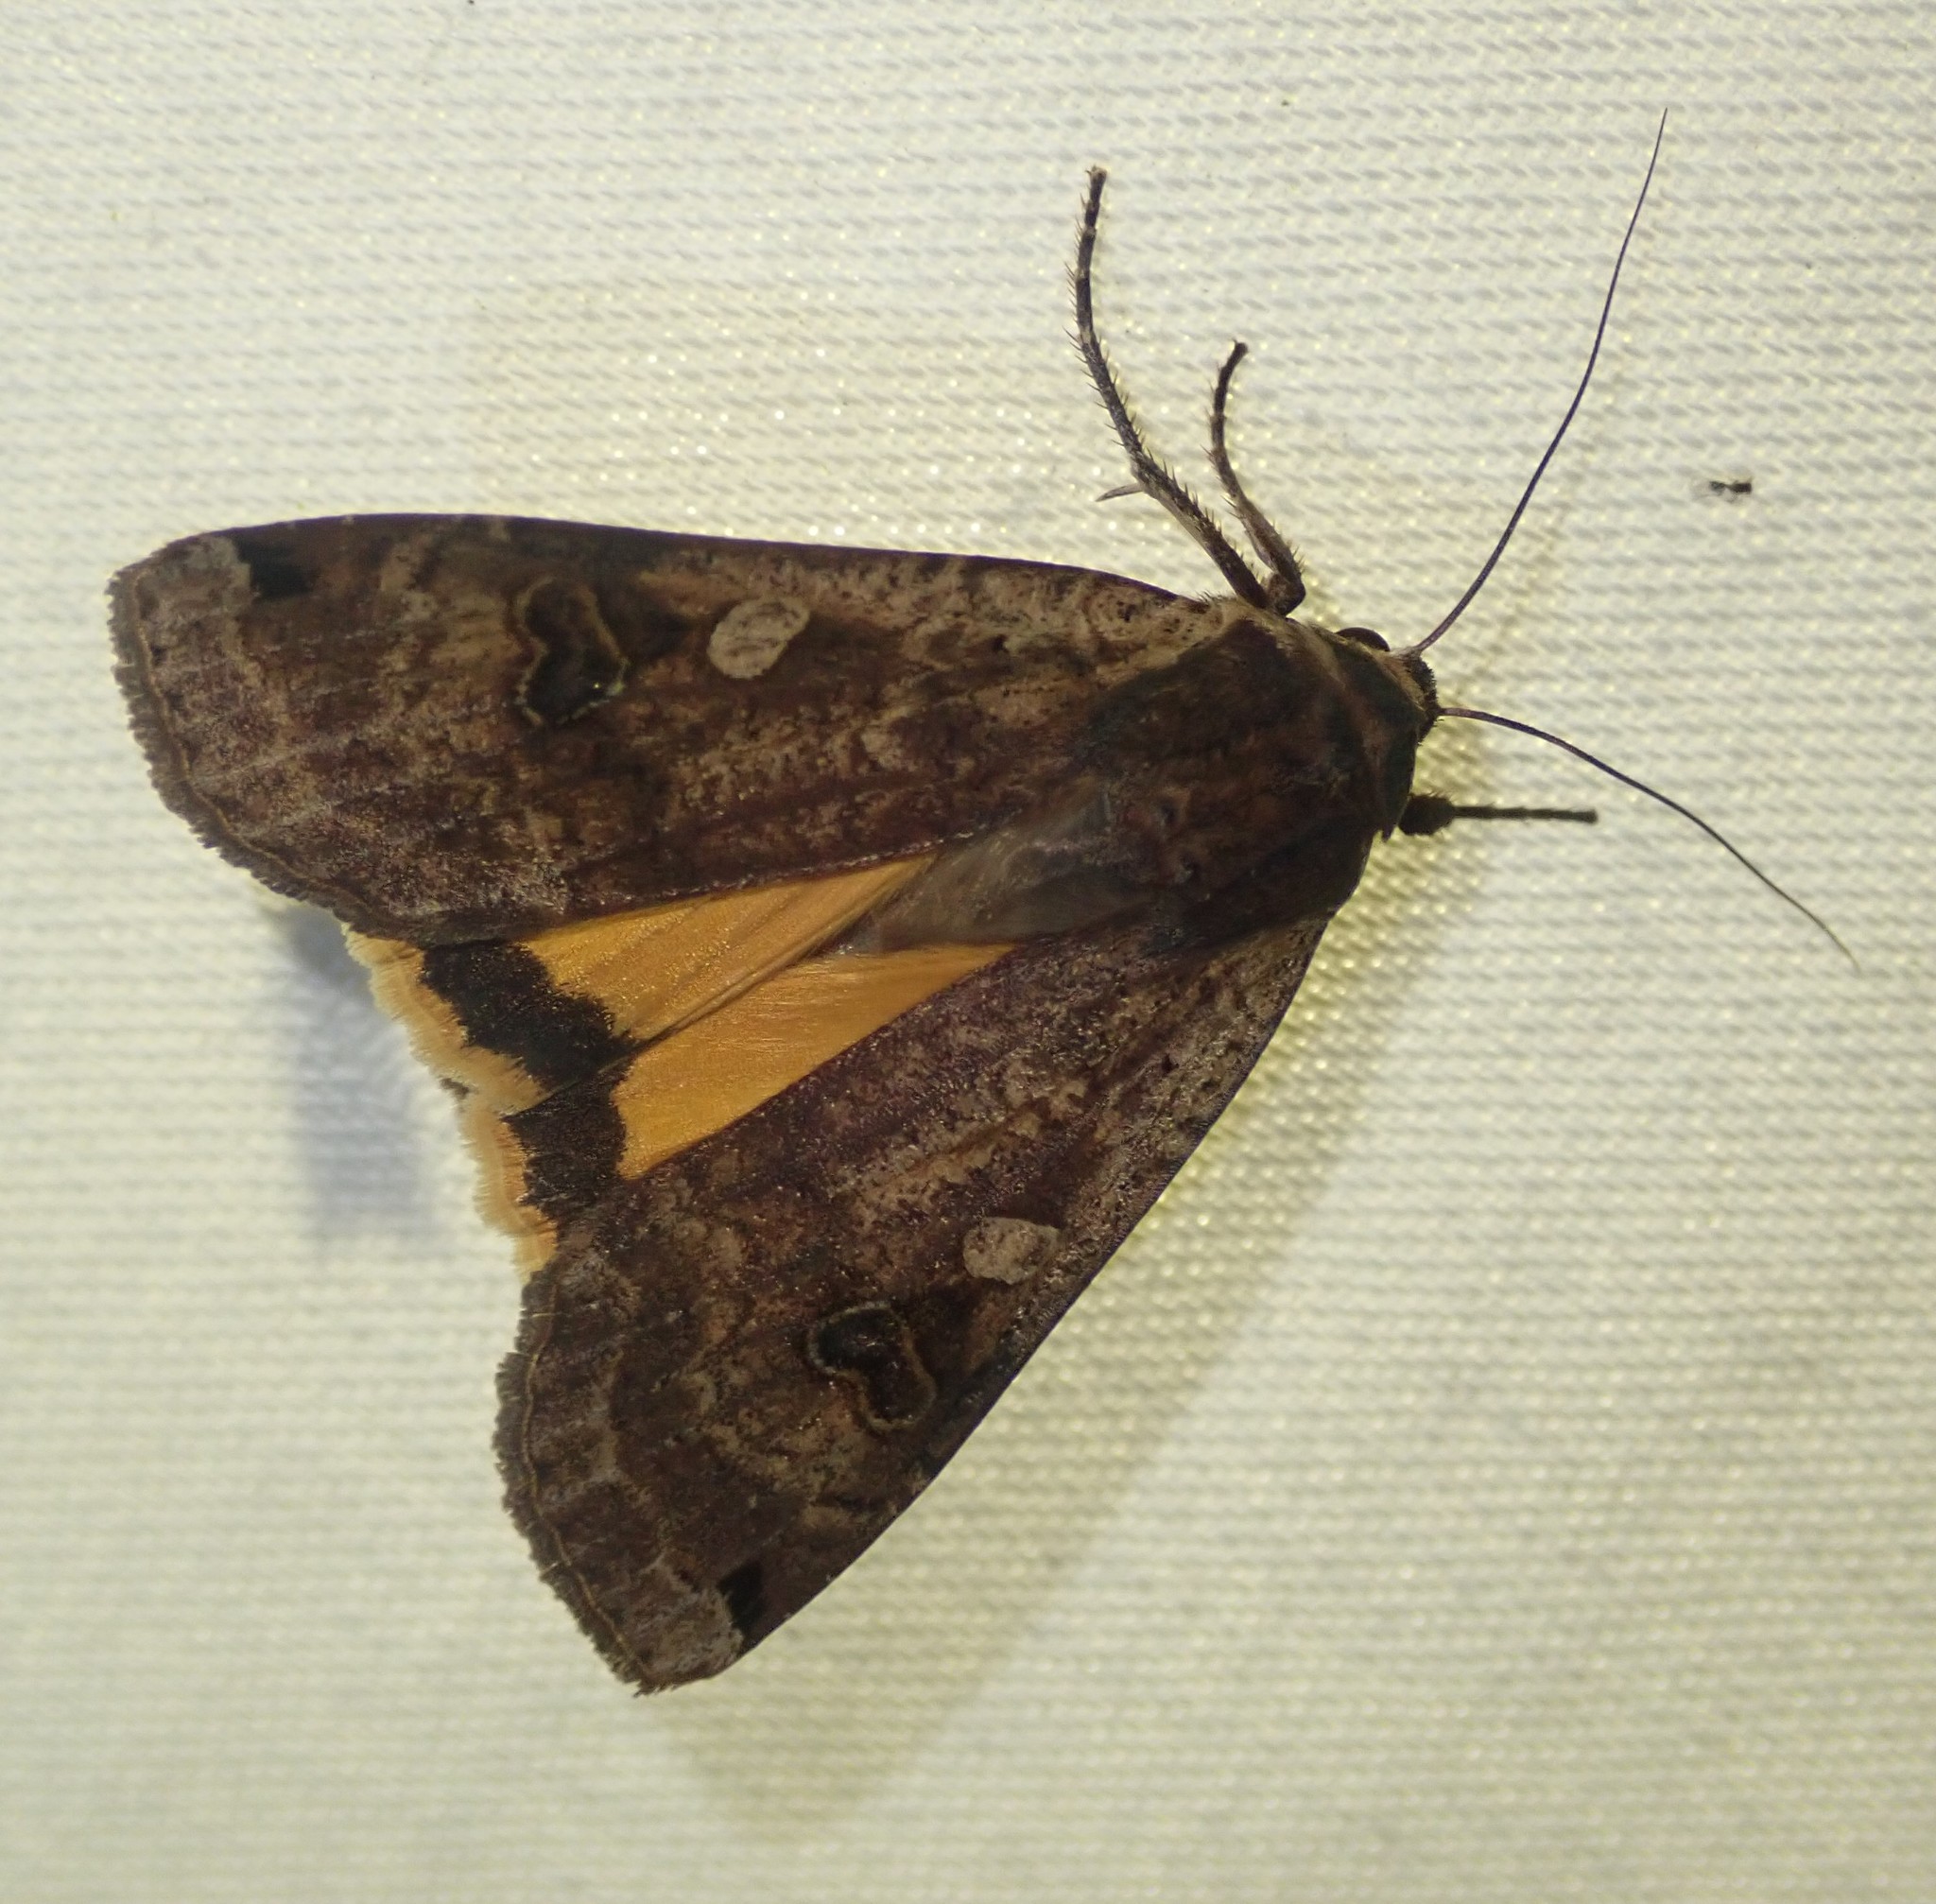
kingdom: Animalia
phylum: Arthropoda
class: Insecta
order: Lepidoptera
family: Noctuidae
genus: Noctua
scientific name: Noctua pronuba
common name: Large yellow underwing
